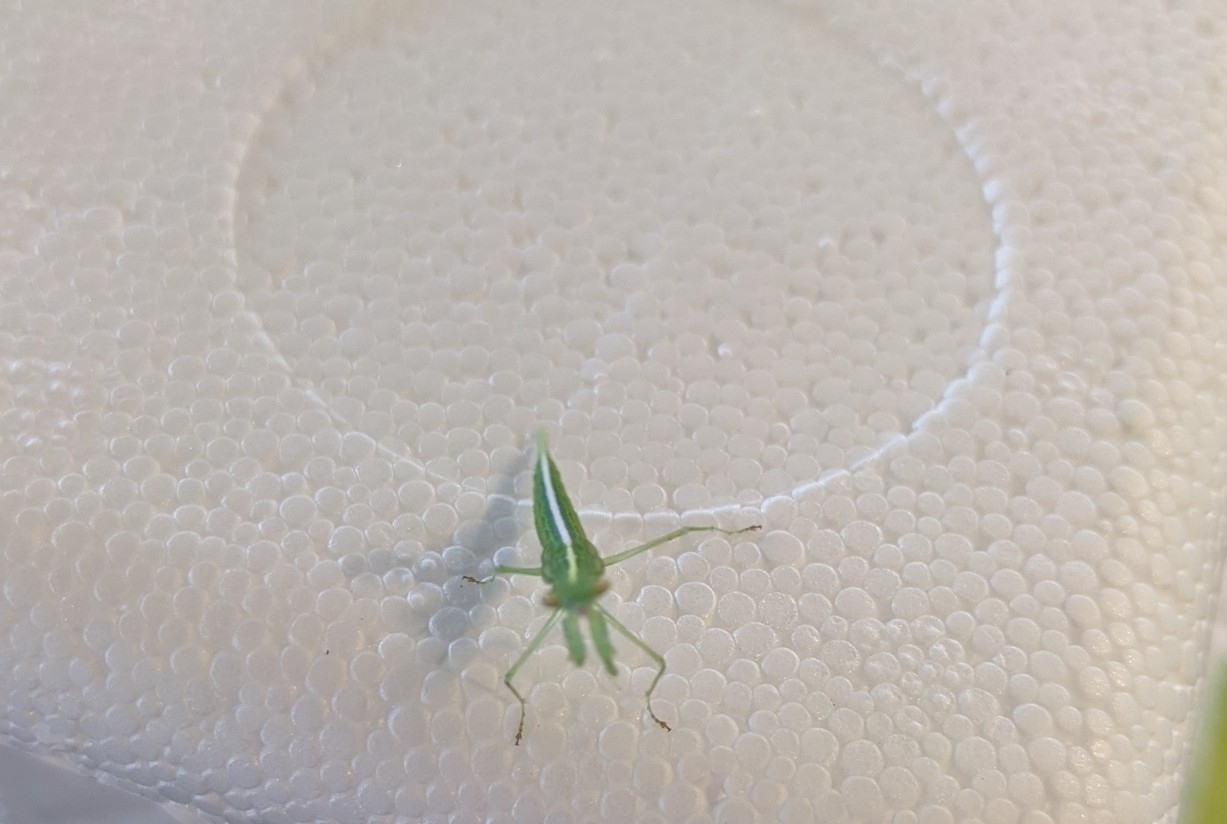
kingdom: Animalia
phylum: Arthropoda
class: Insecta
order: Mantodea
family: Nanomantidae
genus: Kongobatha
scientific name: Kongobatha diademata
